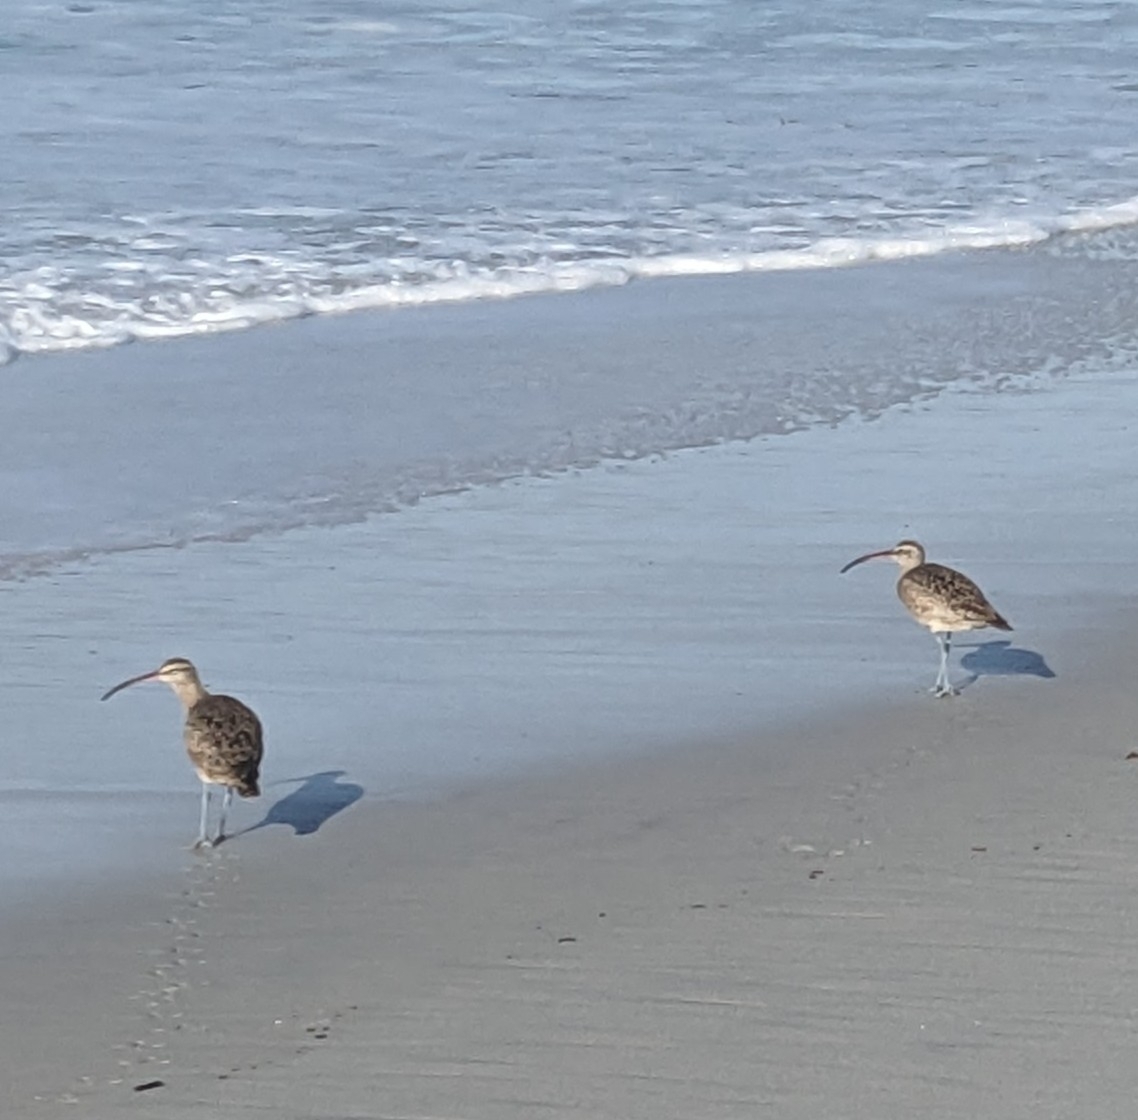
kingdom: Animalia
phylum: Chordata
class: Aves
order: Charadriiformes
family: Scolopacidae
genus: Numenius
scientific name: Numenius phaeopus
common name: Whimbrel
